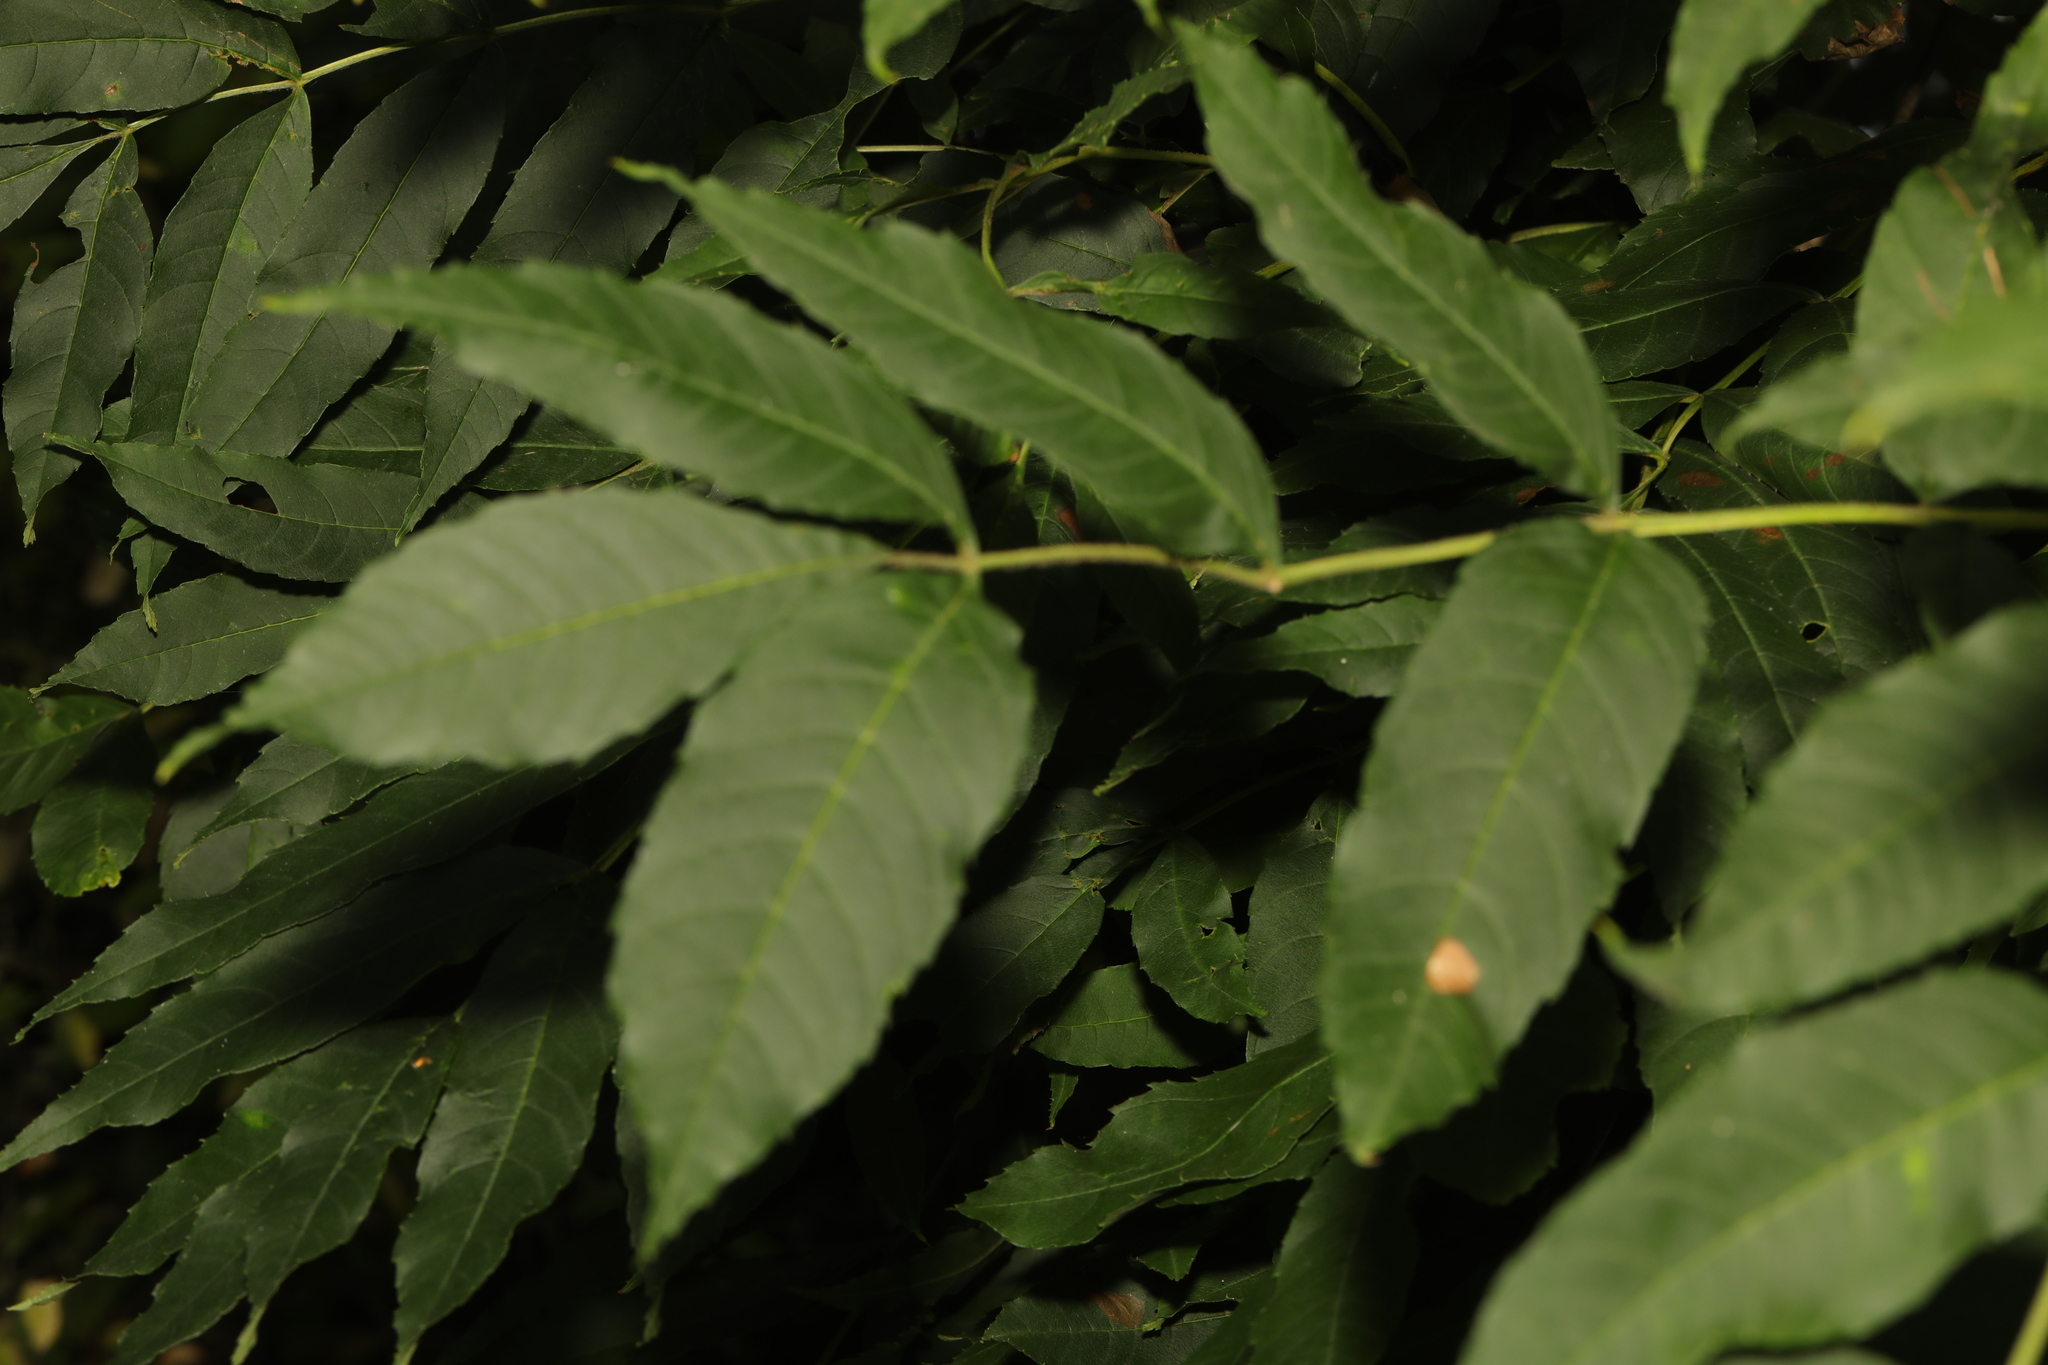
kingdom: Plantae
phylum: Tracheophyta
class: Magnoliopsida
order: Lamiales
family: Oleaceae
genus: Fraxinus
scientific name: Fraxinus excelsior
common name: European ash
